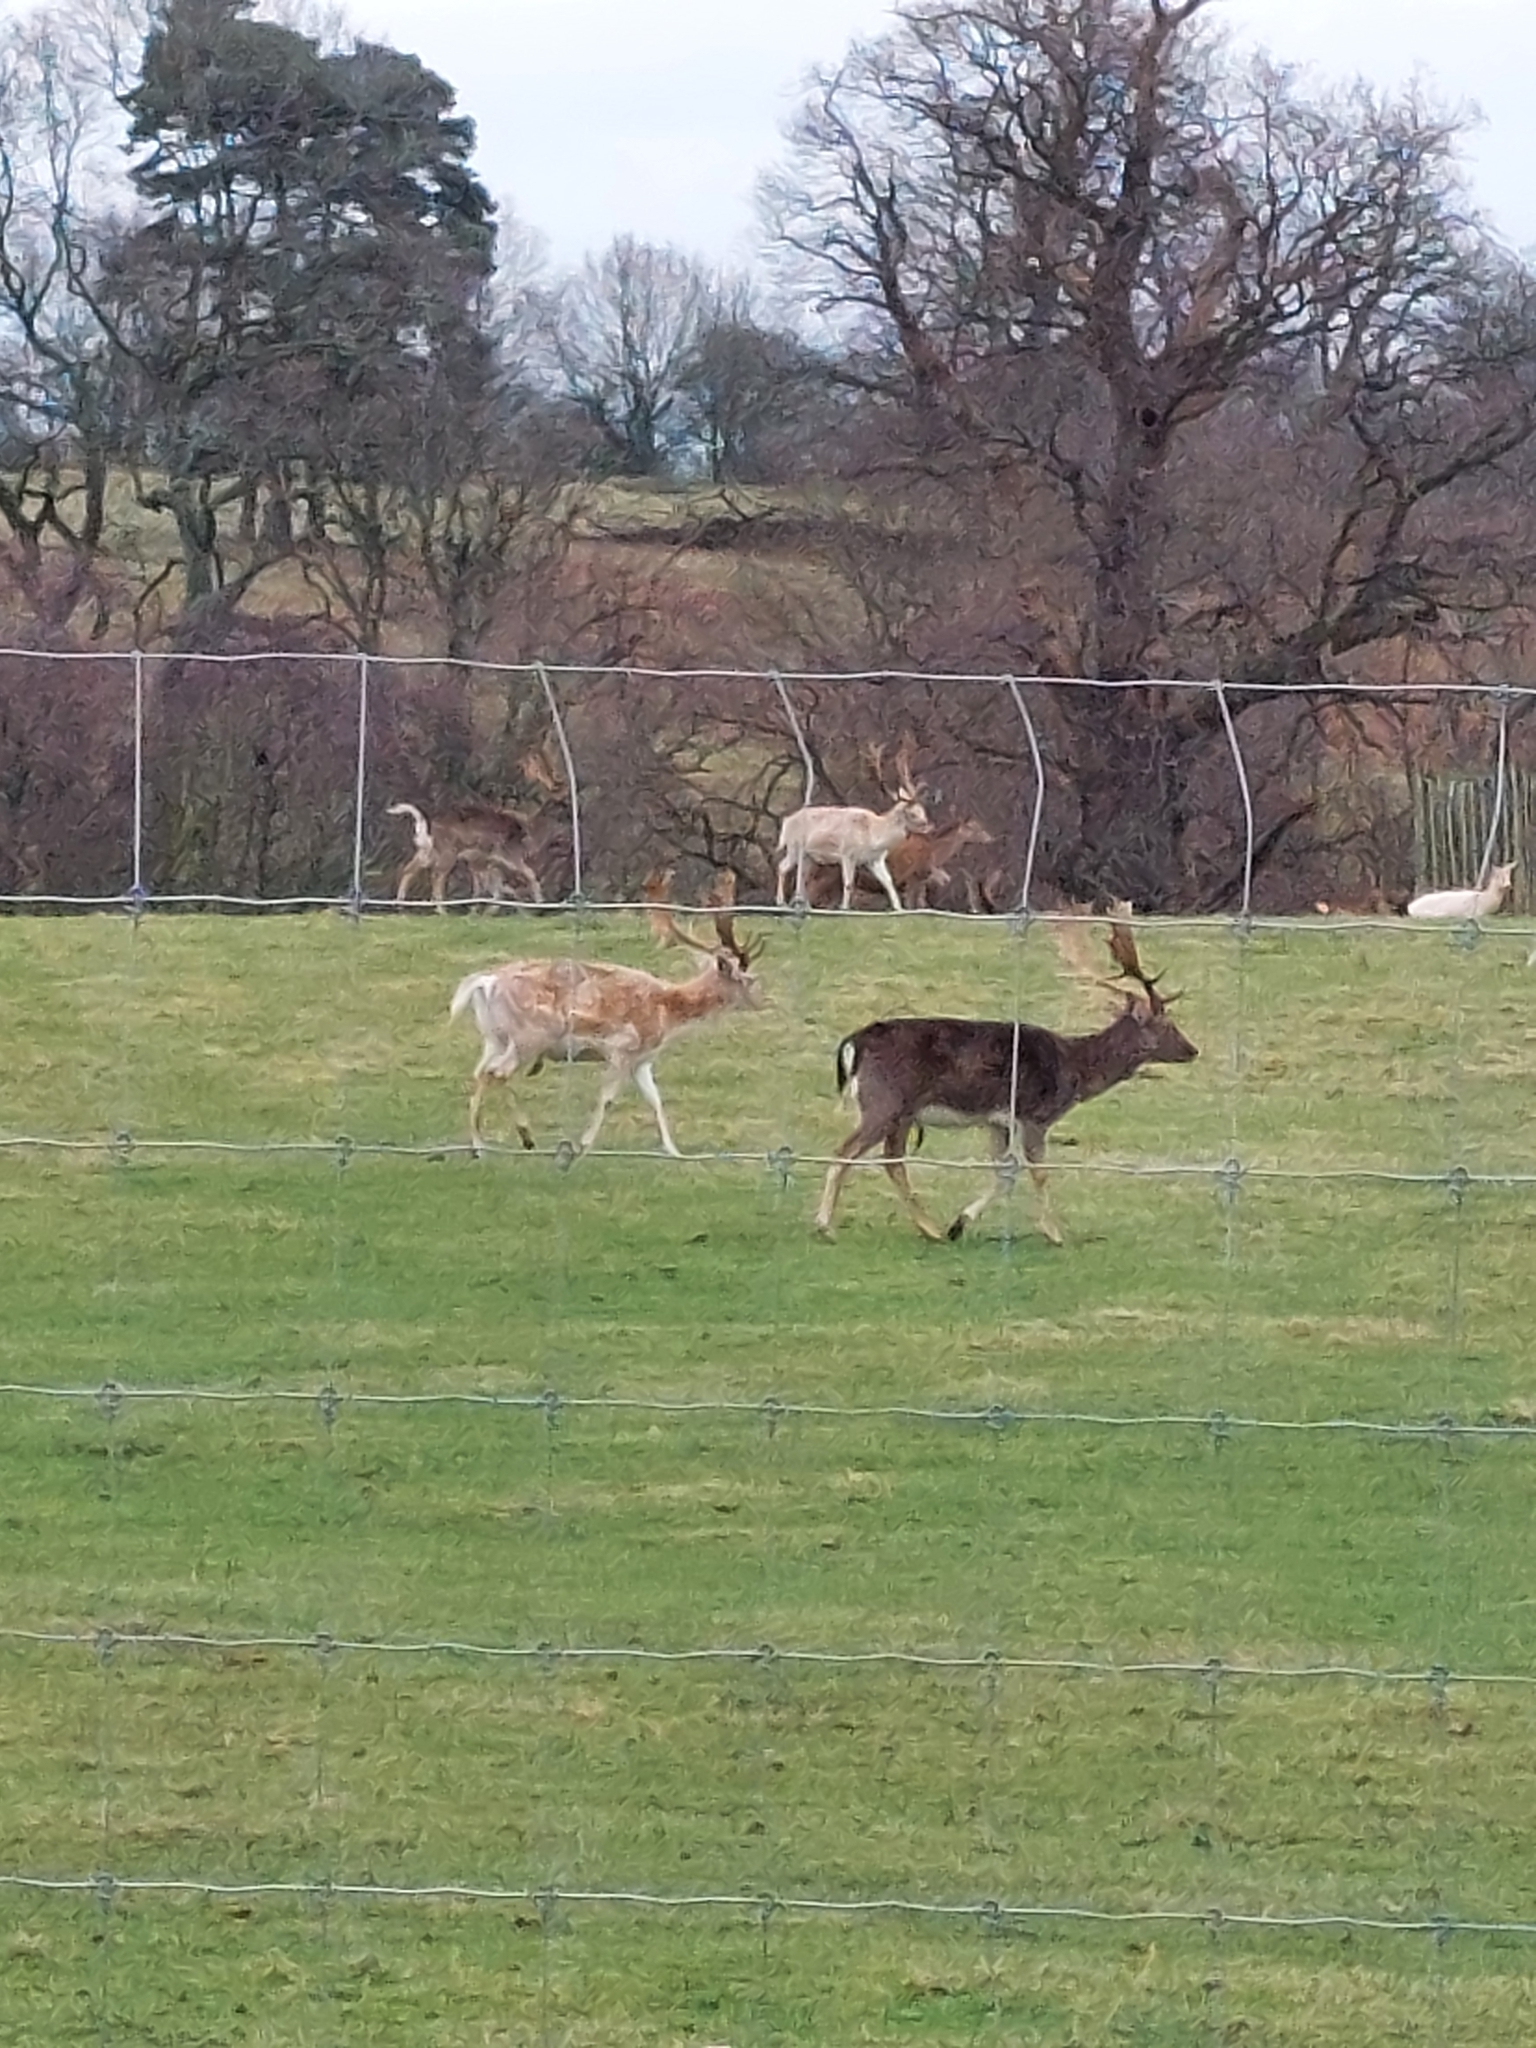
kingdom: Animalia
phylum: Chordata
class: Mammalia
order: Artiodactyla
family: Cervidae
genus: Dama
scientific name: Dama dama
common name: Fallow deer
